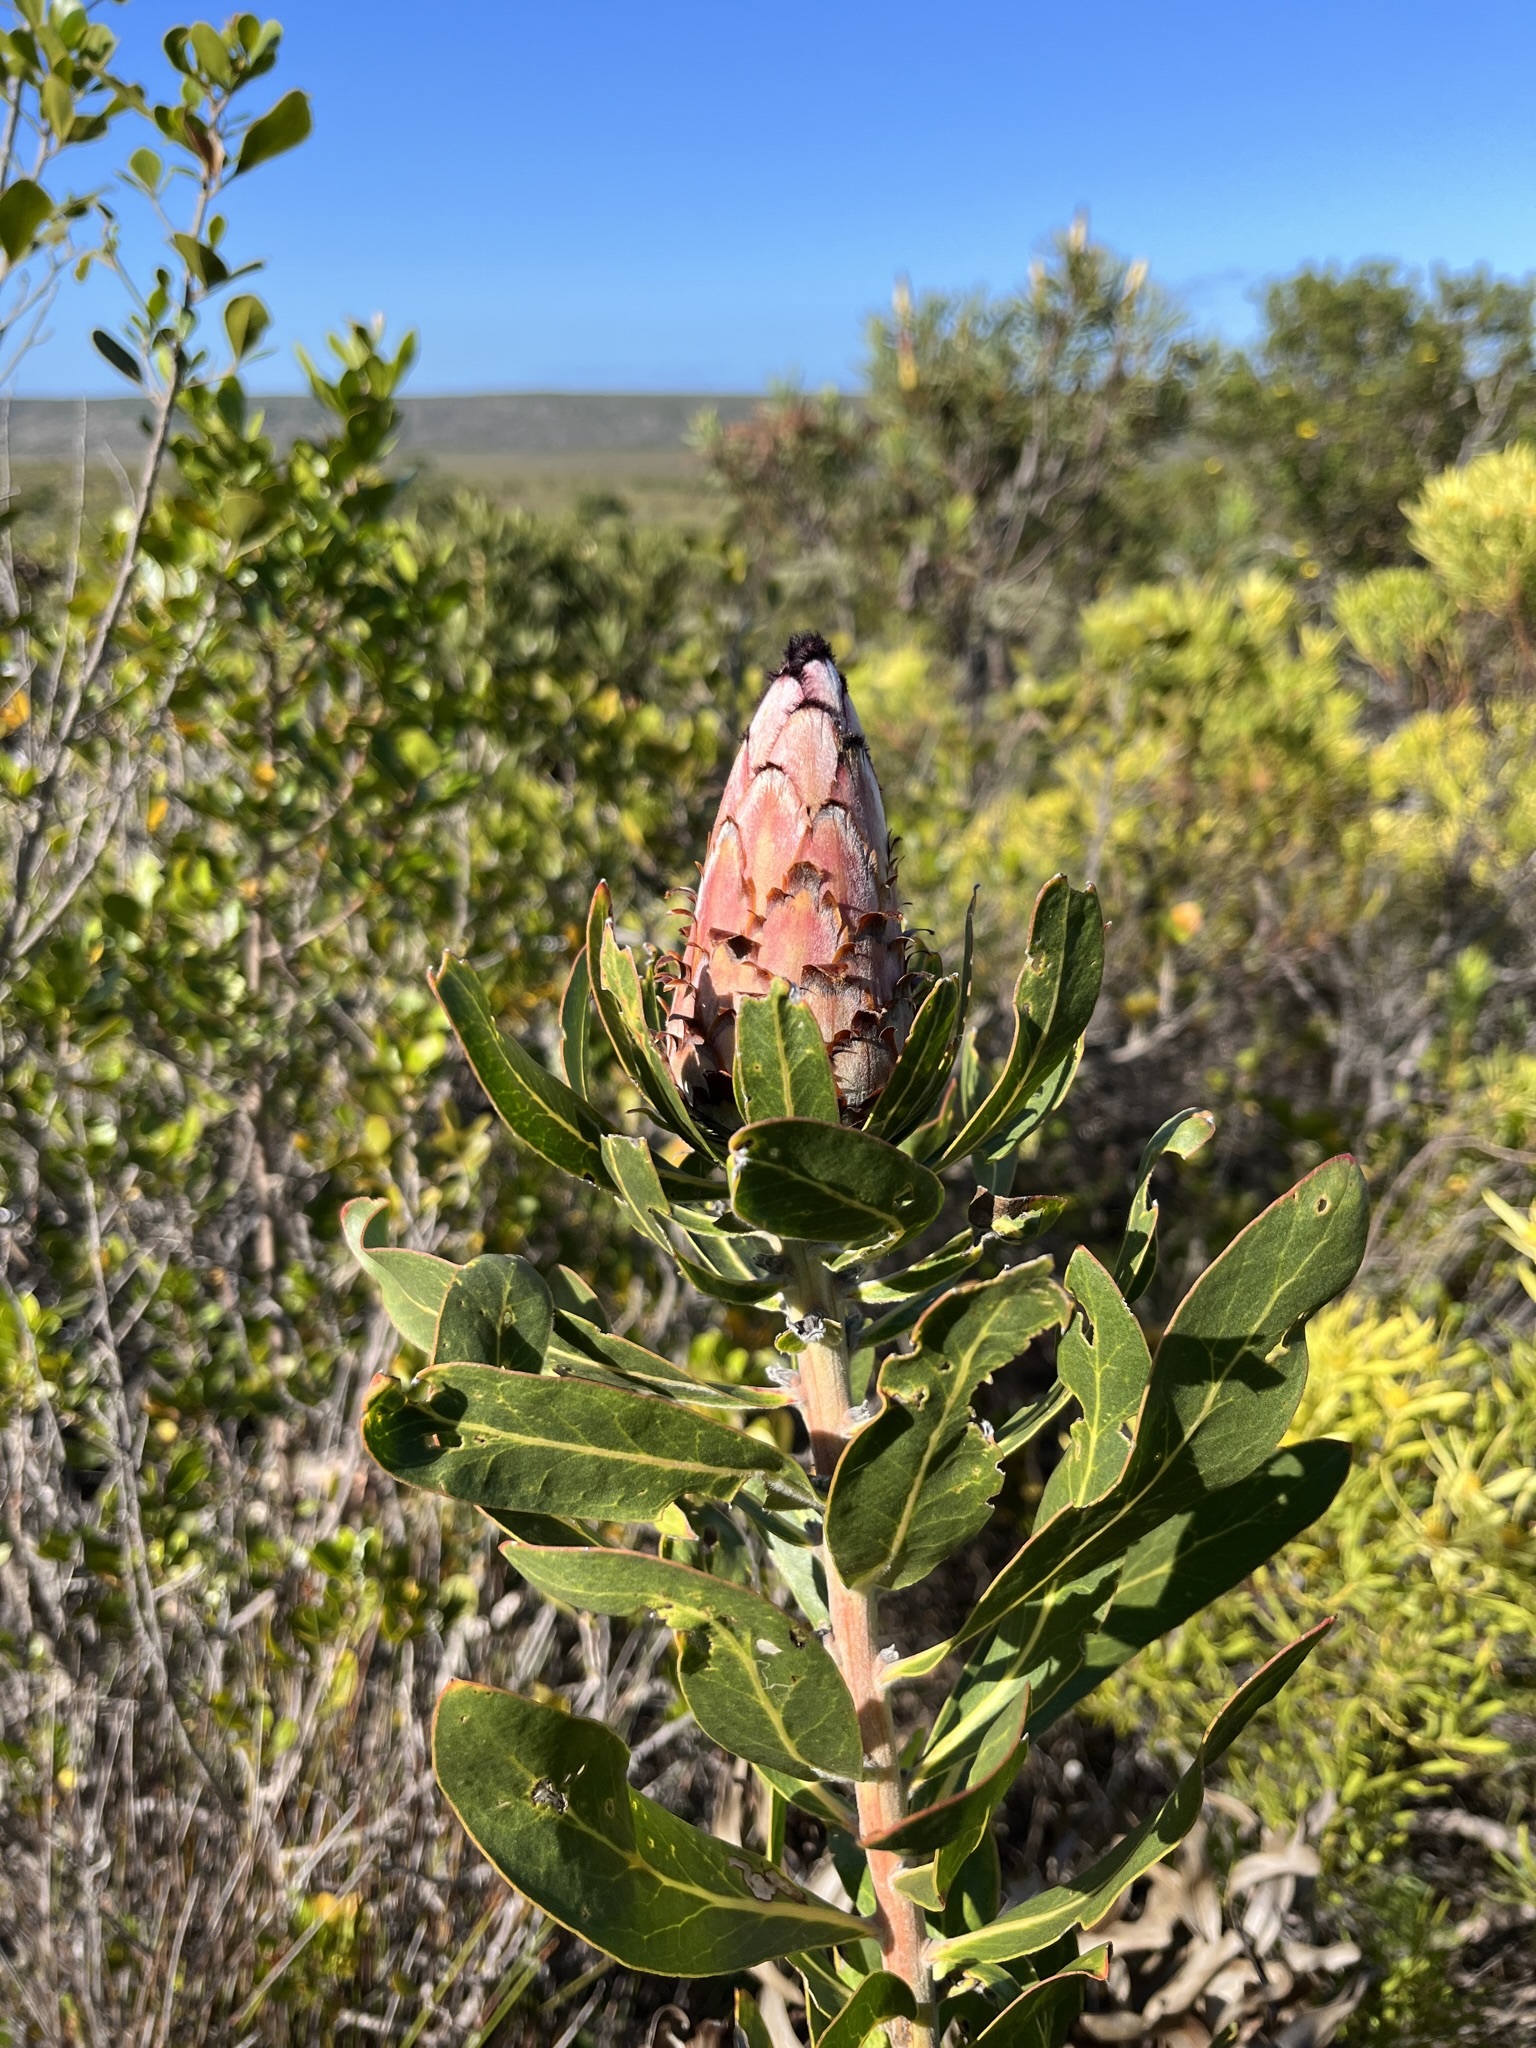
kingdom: Plantae
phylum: Tracheophyta
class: Magnoliopsida
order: Proteales
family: Proteaceae
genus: Protea
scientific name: Protea neriifolia
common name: Blue sugarbush
